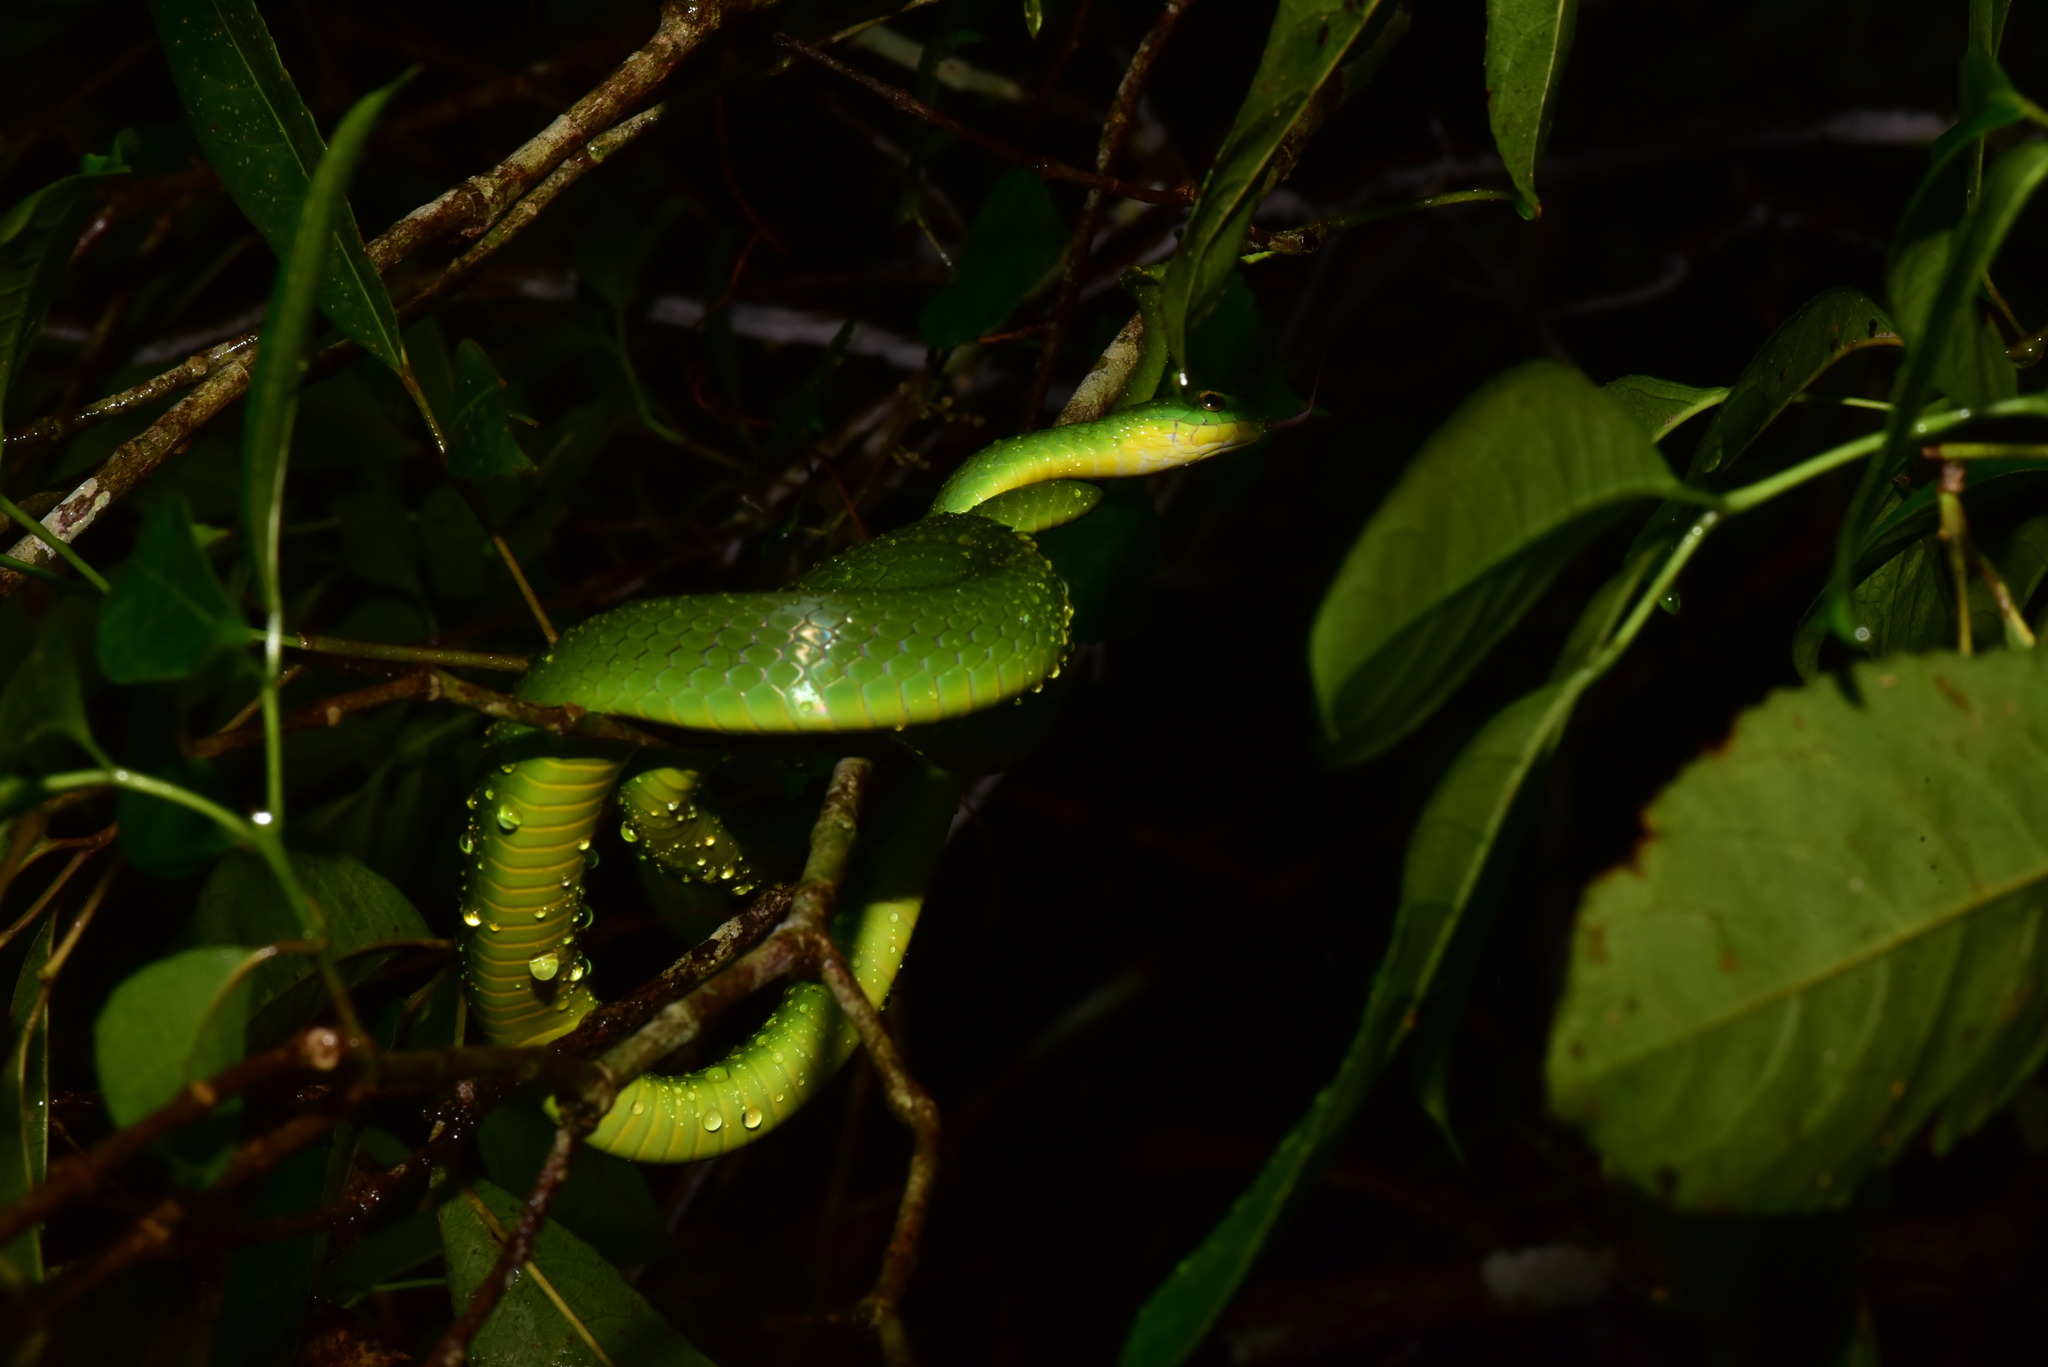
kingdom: Animalia
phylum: Chordata
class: Squamata
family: Colubridae
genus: Ptyas
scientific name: Ptyas major
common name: Chinese green snake
